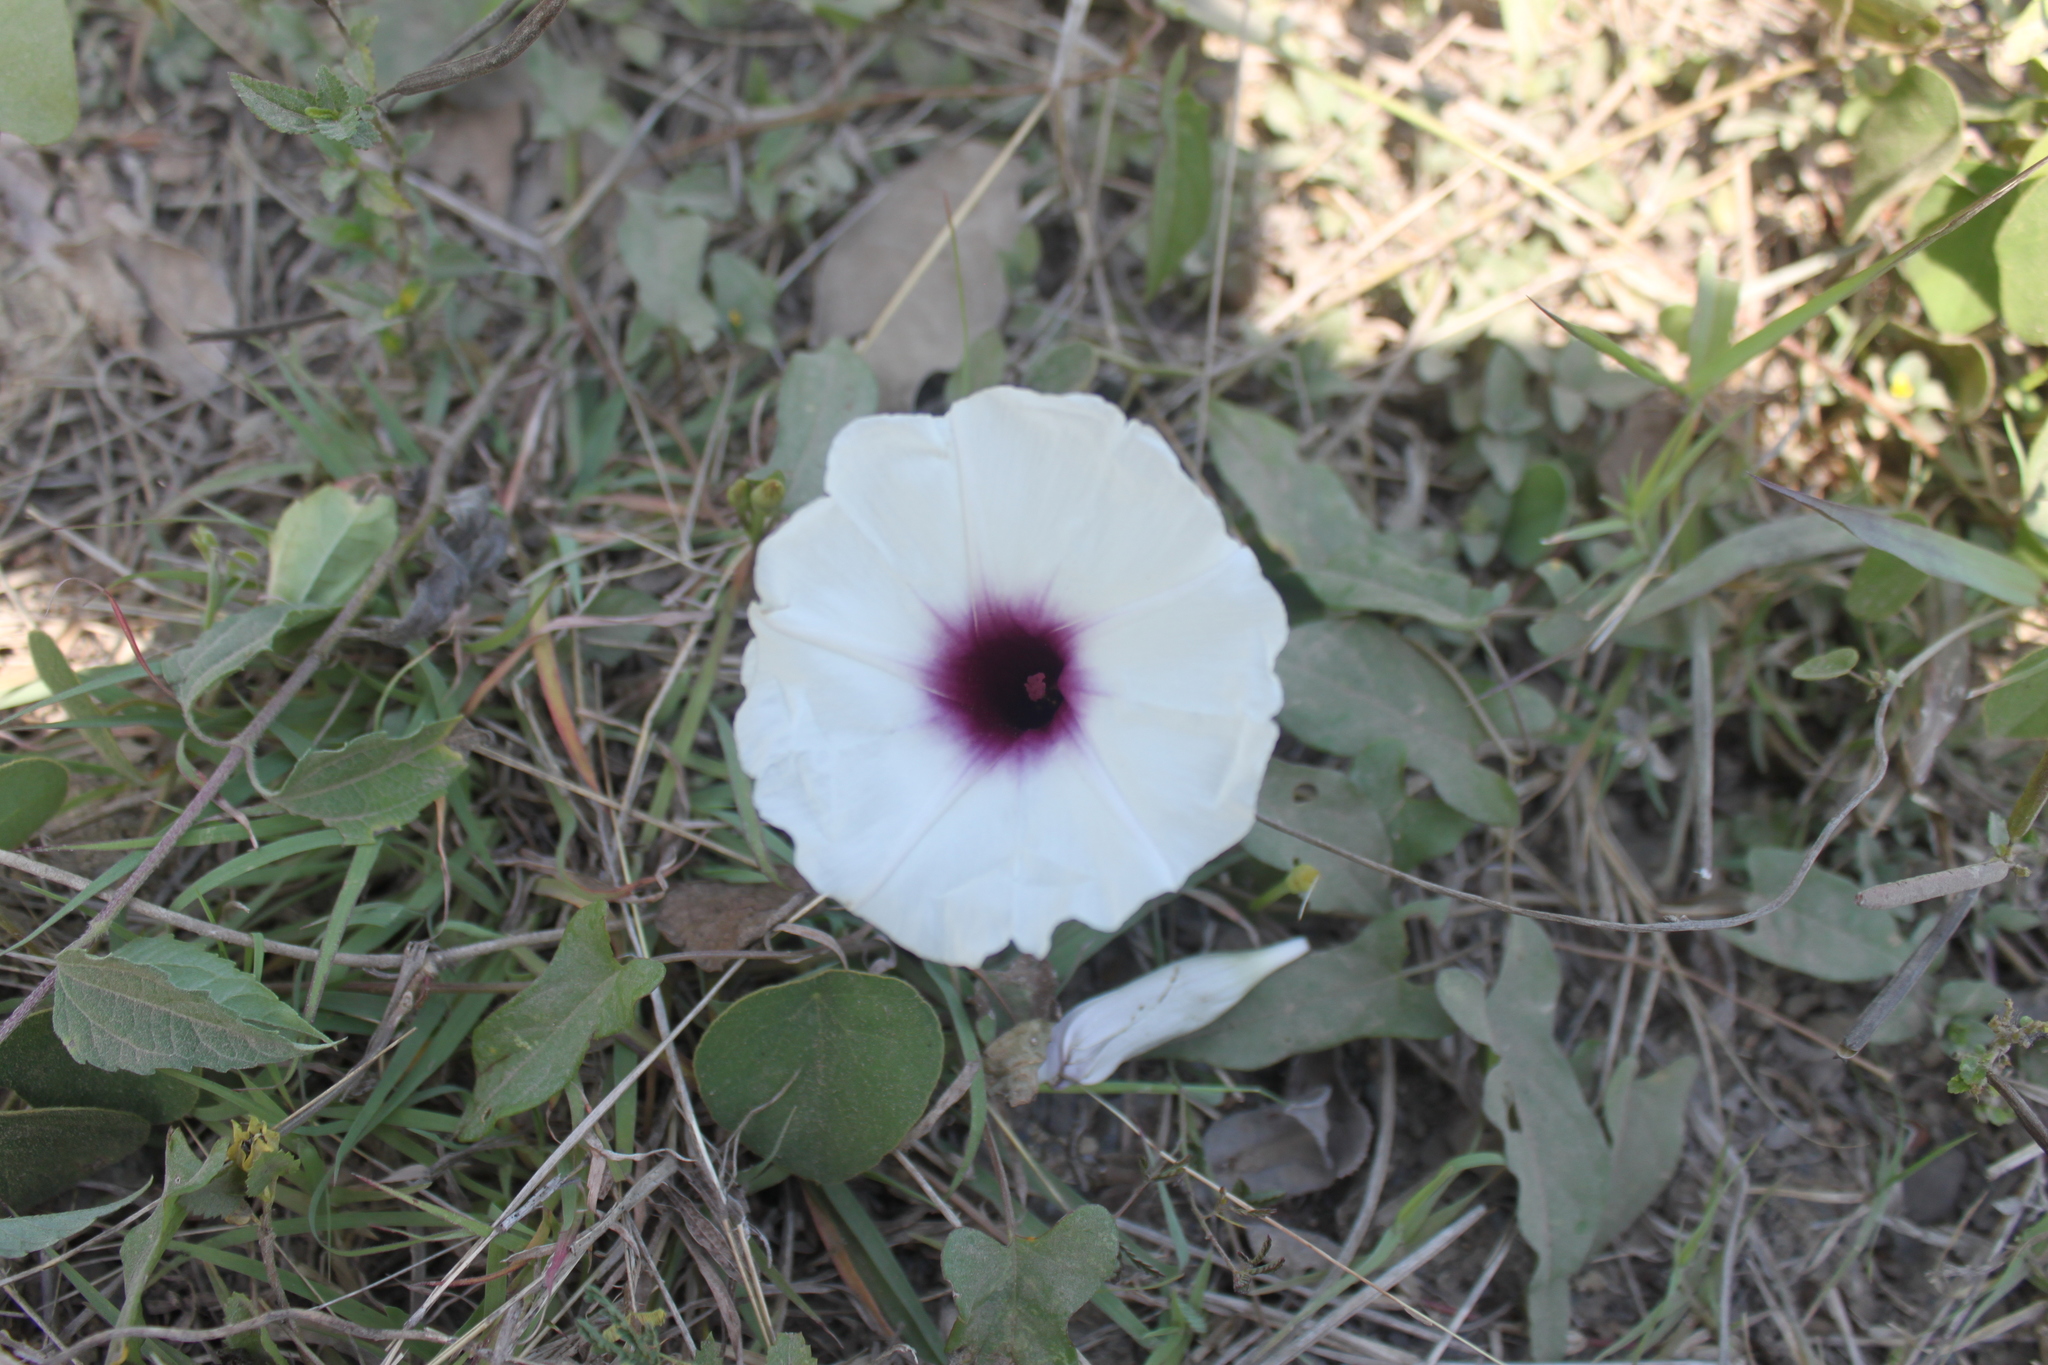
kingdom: Plantae
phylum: Tracheophyta
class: Magnoliopsida
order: Solanales
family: Convolvulaceae
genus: Ipomoea
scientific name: Ipomoea squamosa
